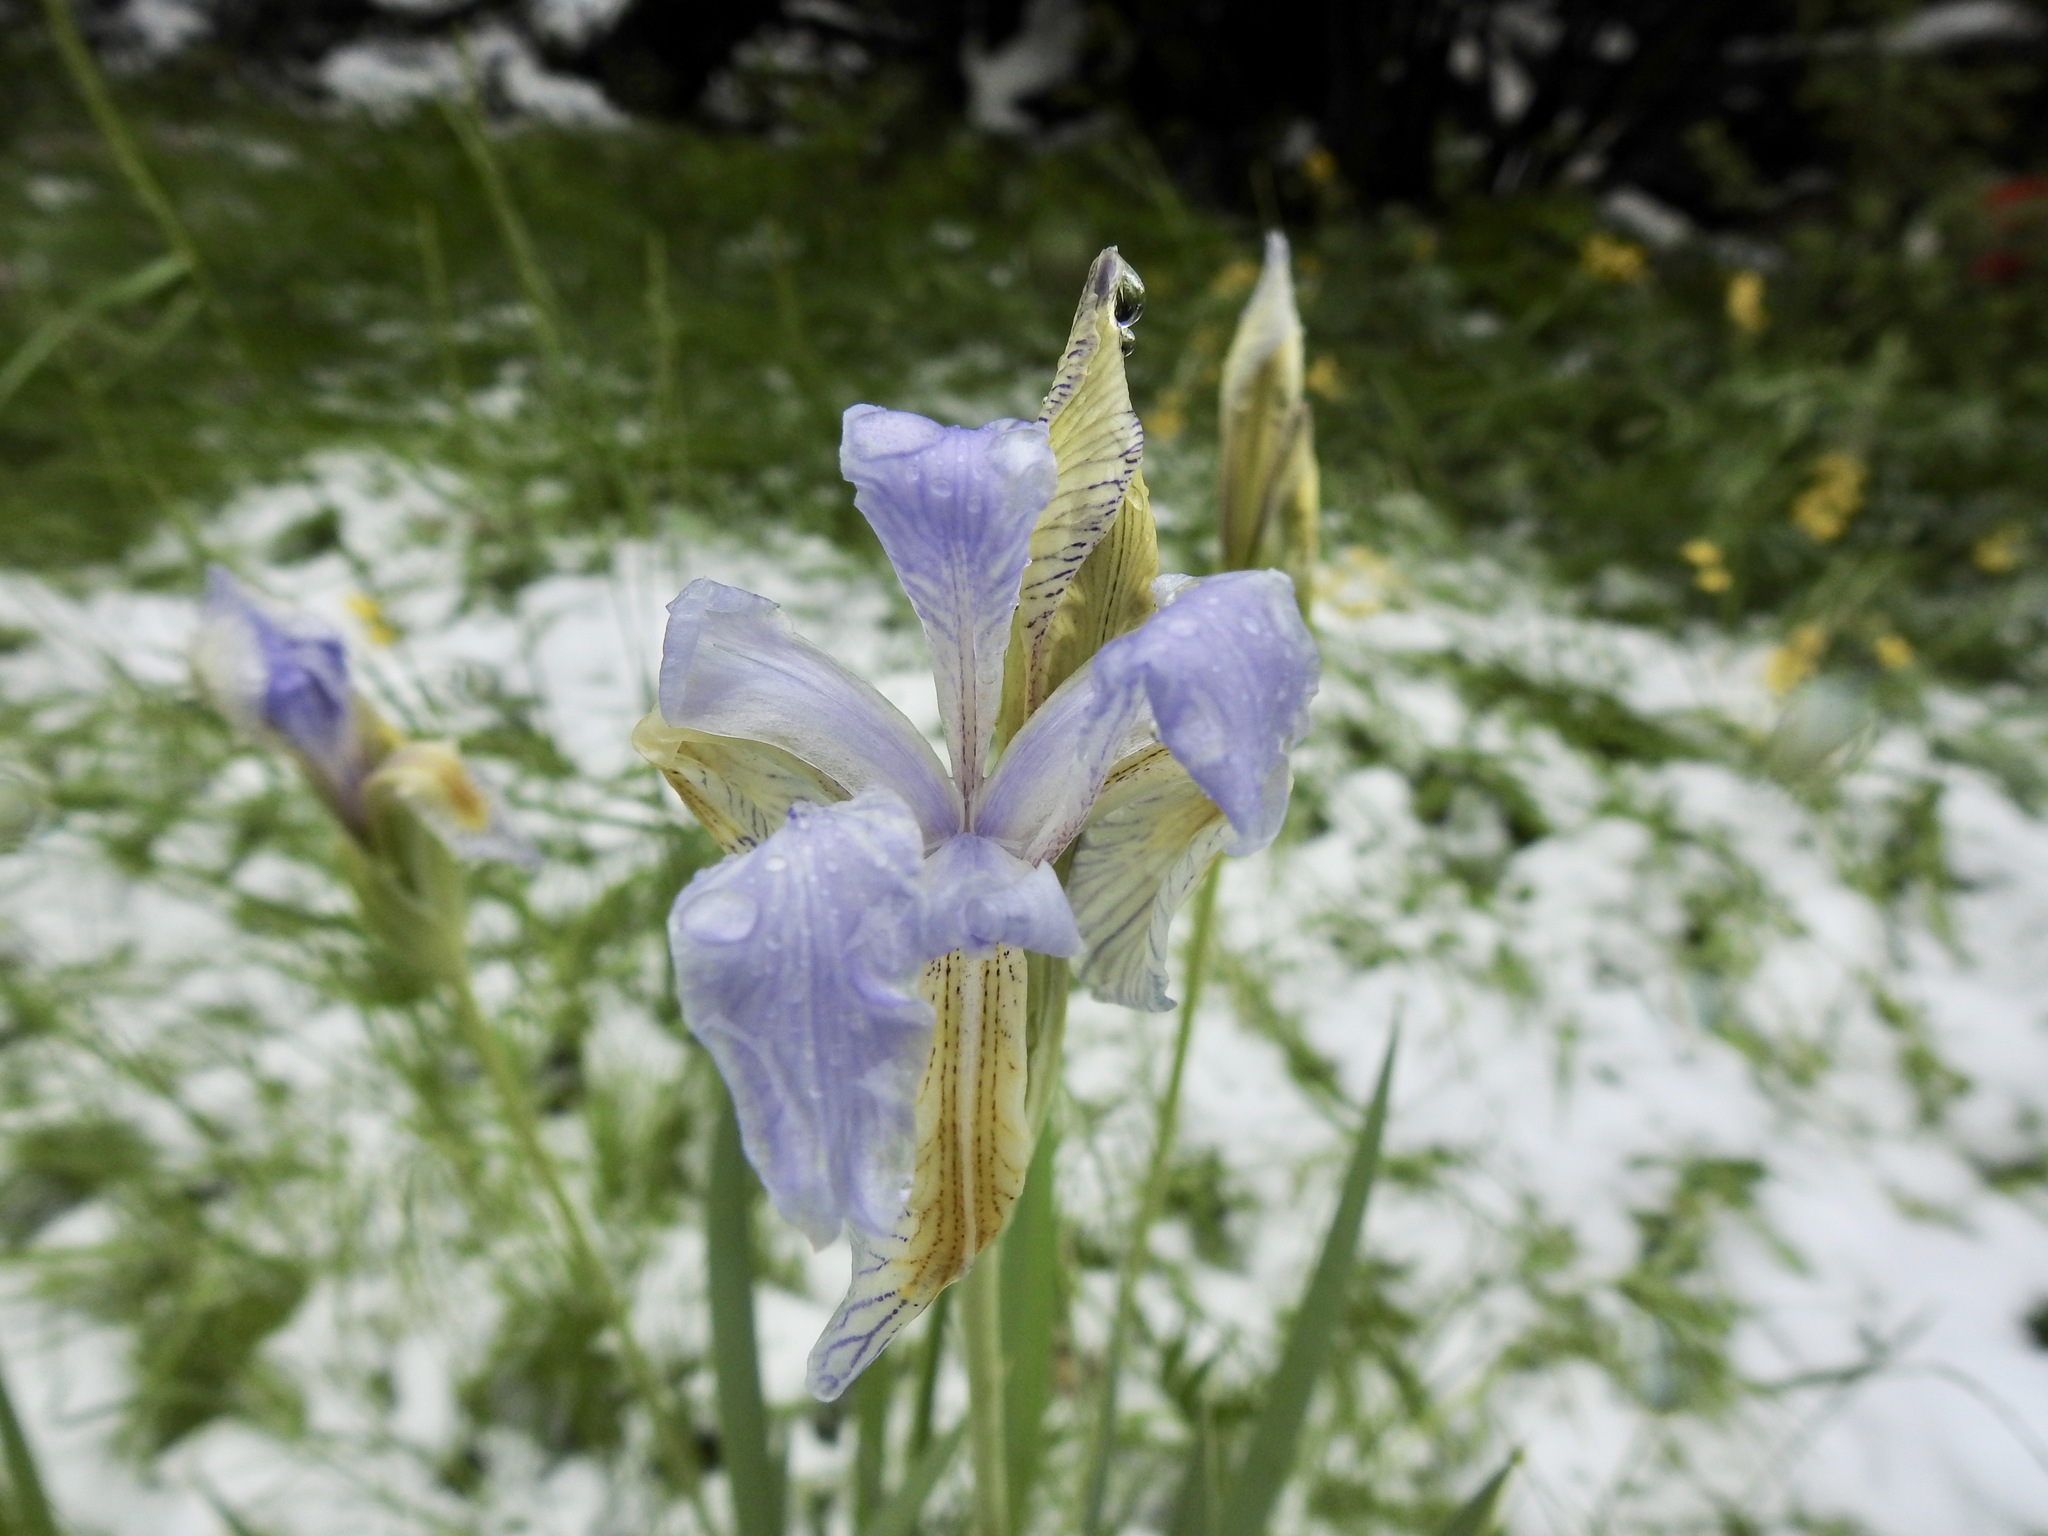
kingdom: Plantae
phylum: Tracheophyta
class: Liliopsida
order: Asparagales
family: Iridaceae
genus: Iris
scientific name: Iris missouriensis
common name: Rocky mountain iris
